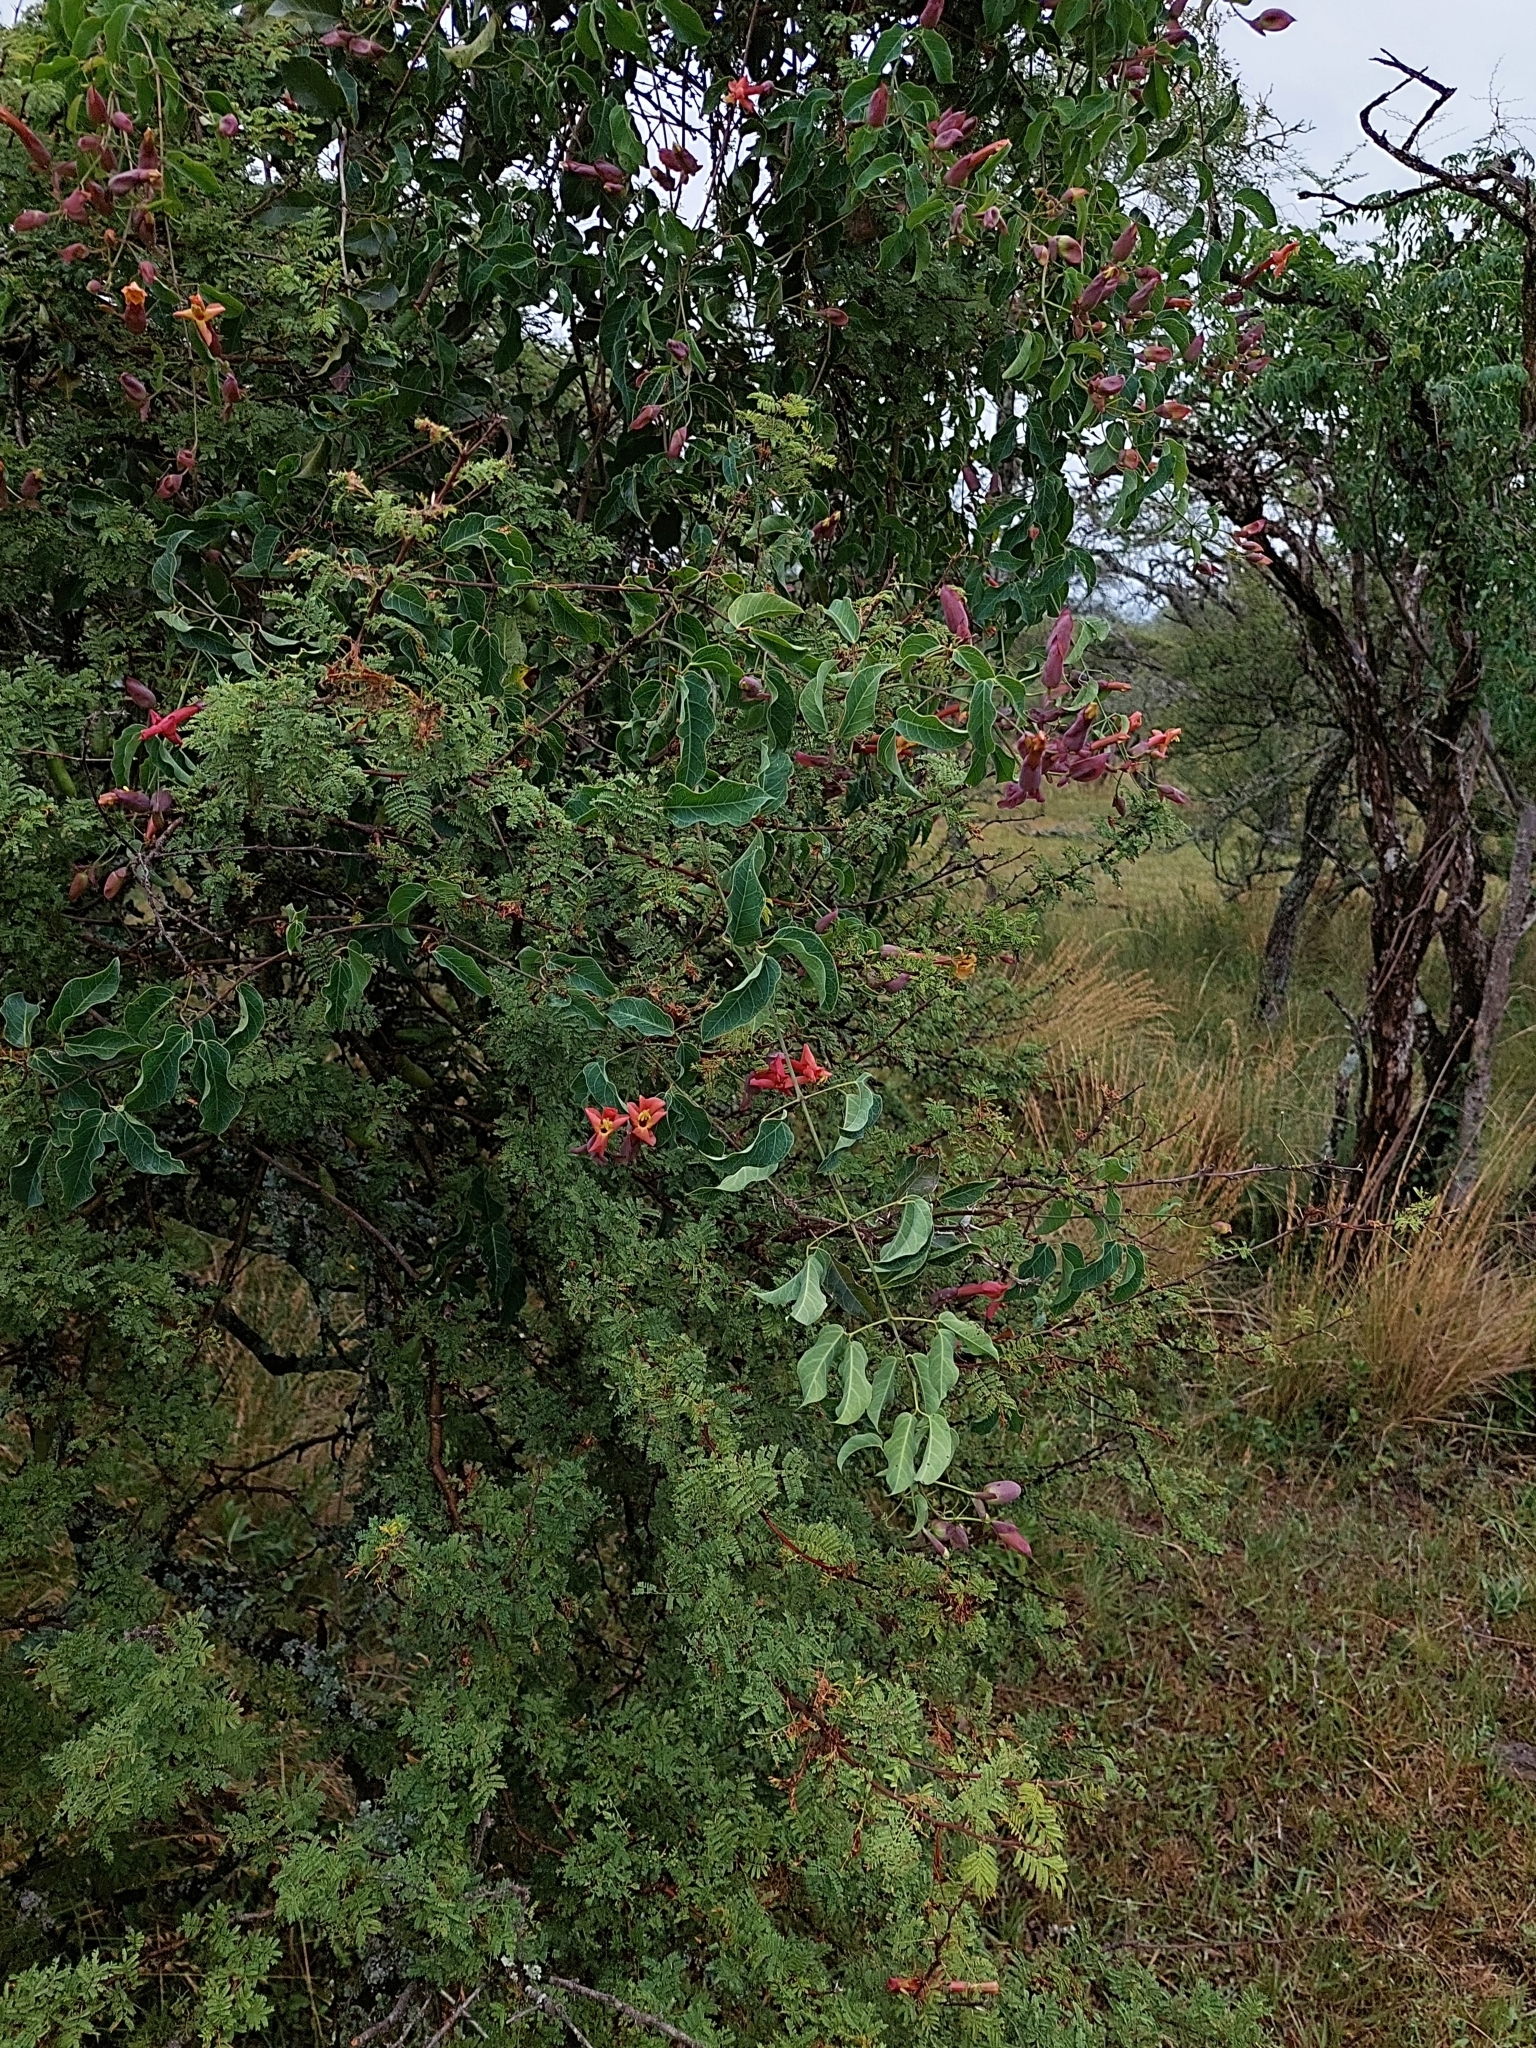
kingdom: Plantae
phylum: Tracheophyta
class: Magnoliopsida
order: Lamiales
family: Bignoniaceae
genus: Dolichandra
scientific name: Dolichandra cynanchoides
